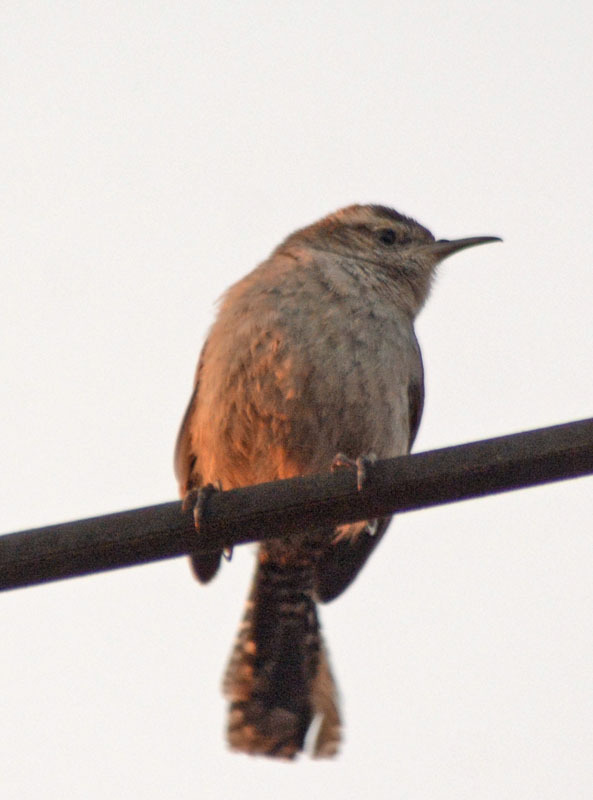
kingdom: Animalia
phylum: Chordata
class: Aves
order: Passeriformes
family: Troglodytidae
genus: Thryomanes
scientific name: Thryomanes bewickii
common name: Bewick's wren
